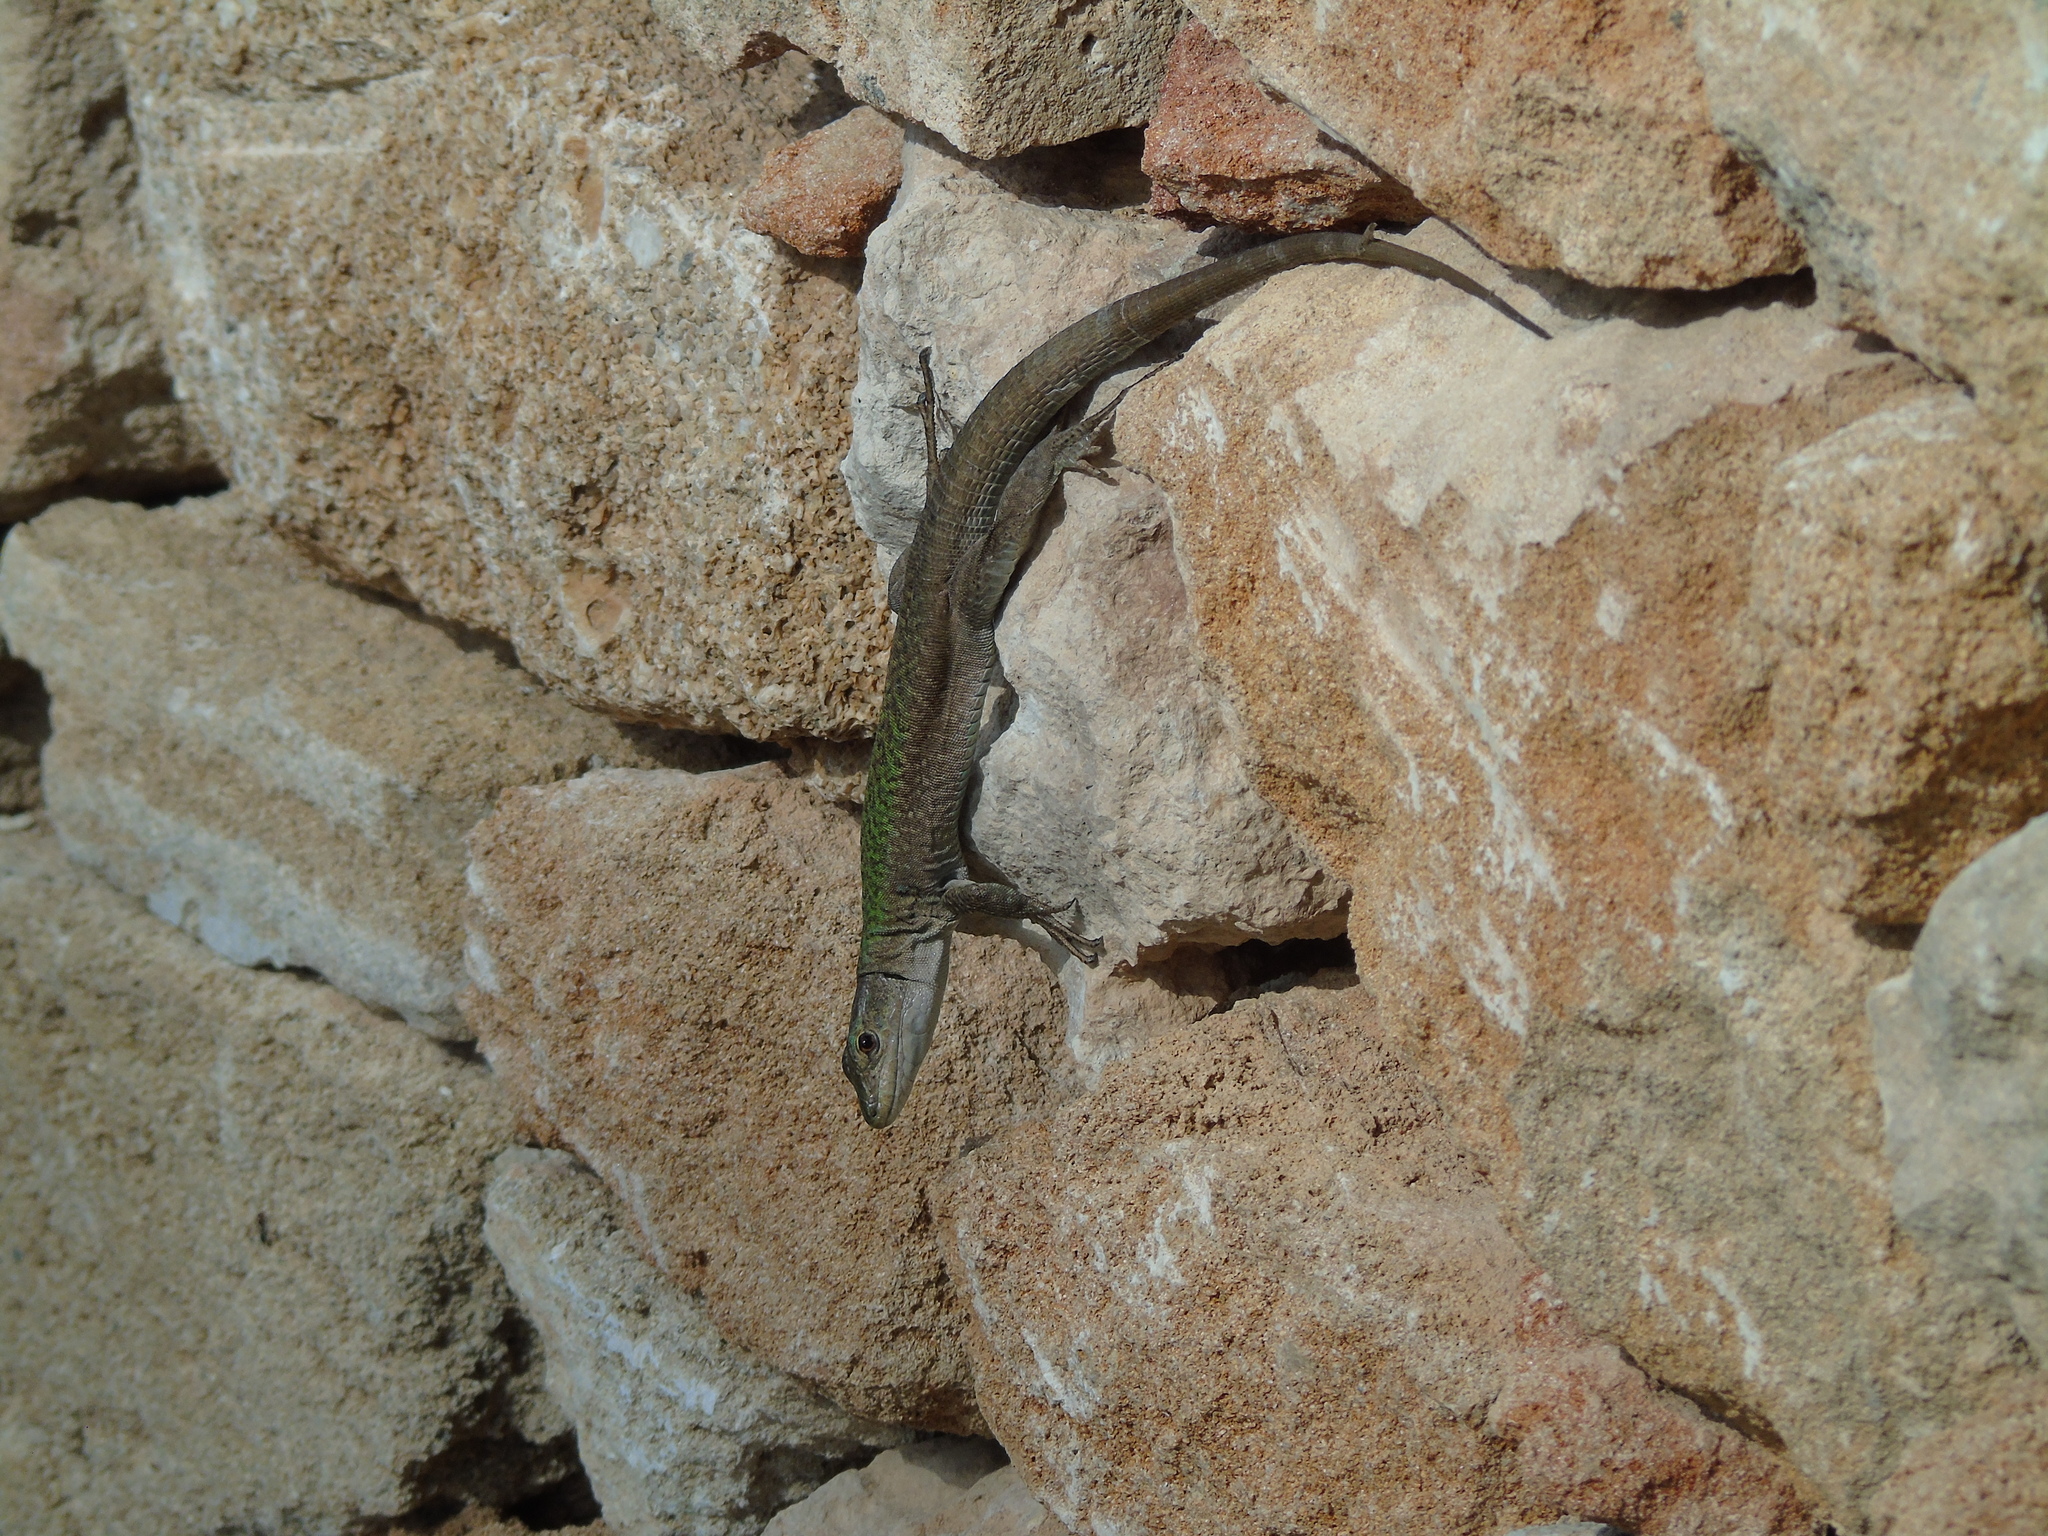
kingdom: Animalia
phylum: Chordata
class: Squamata
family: Lacertidae
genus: Podarcis
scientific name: Podarcis siculus
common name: Italian wall lizard
